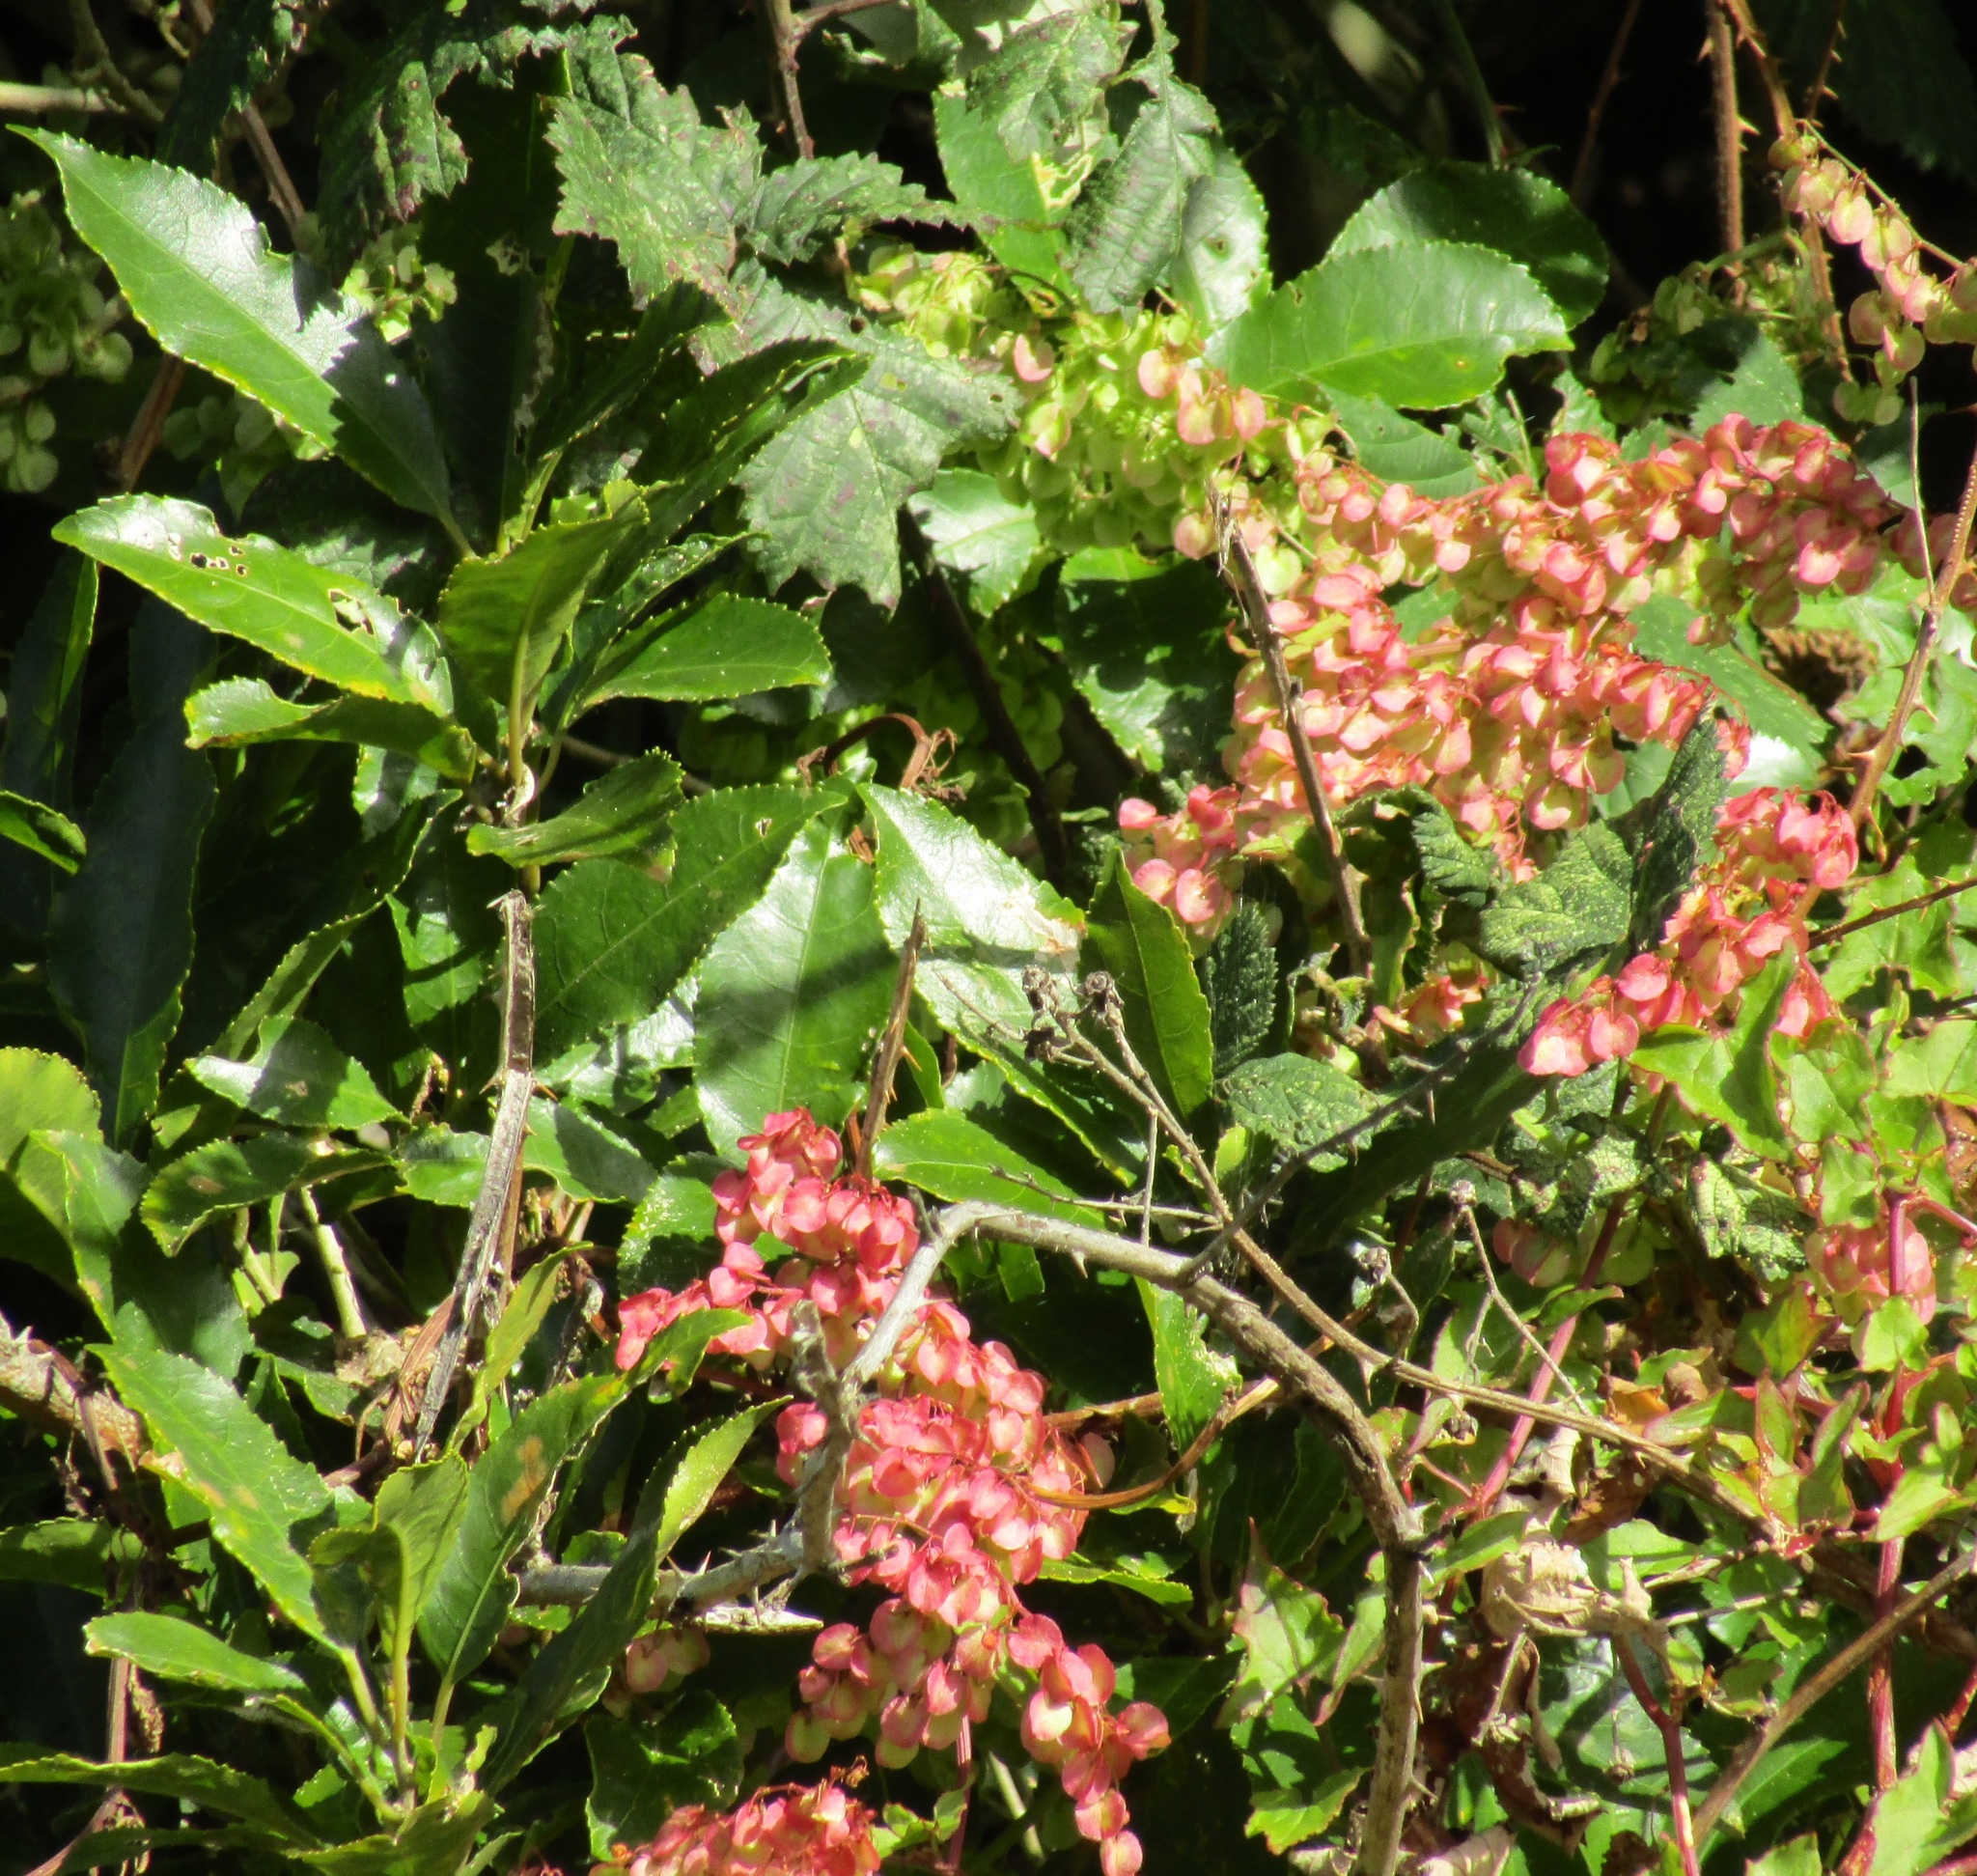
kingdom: Plantae
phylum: Tracheophyta
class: Magnoliopsida
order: Caryophyllales
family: Polygonaceae
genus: Rumex
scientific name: Rumex sagittatus
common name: Climbing dock
